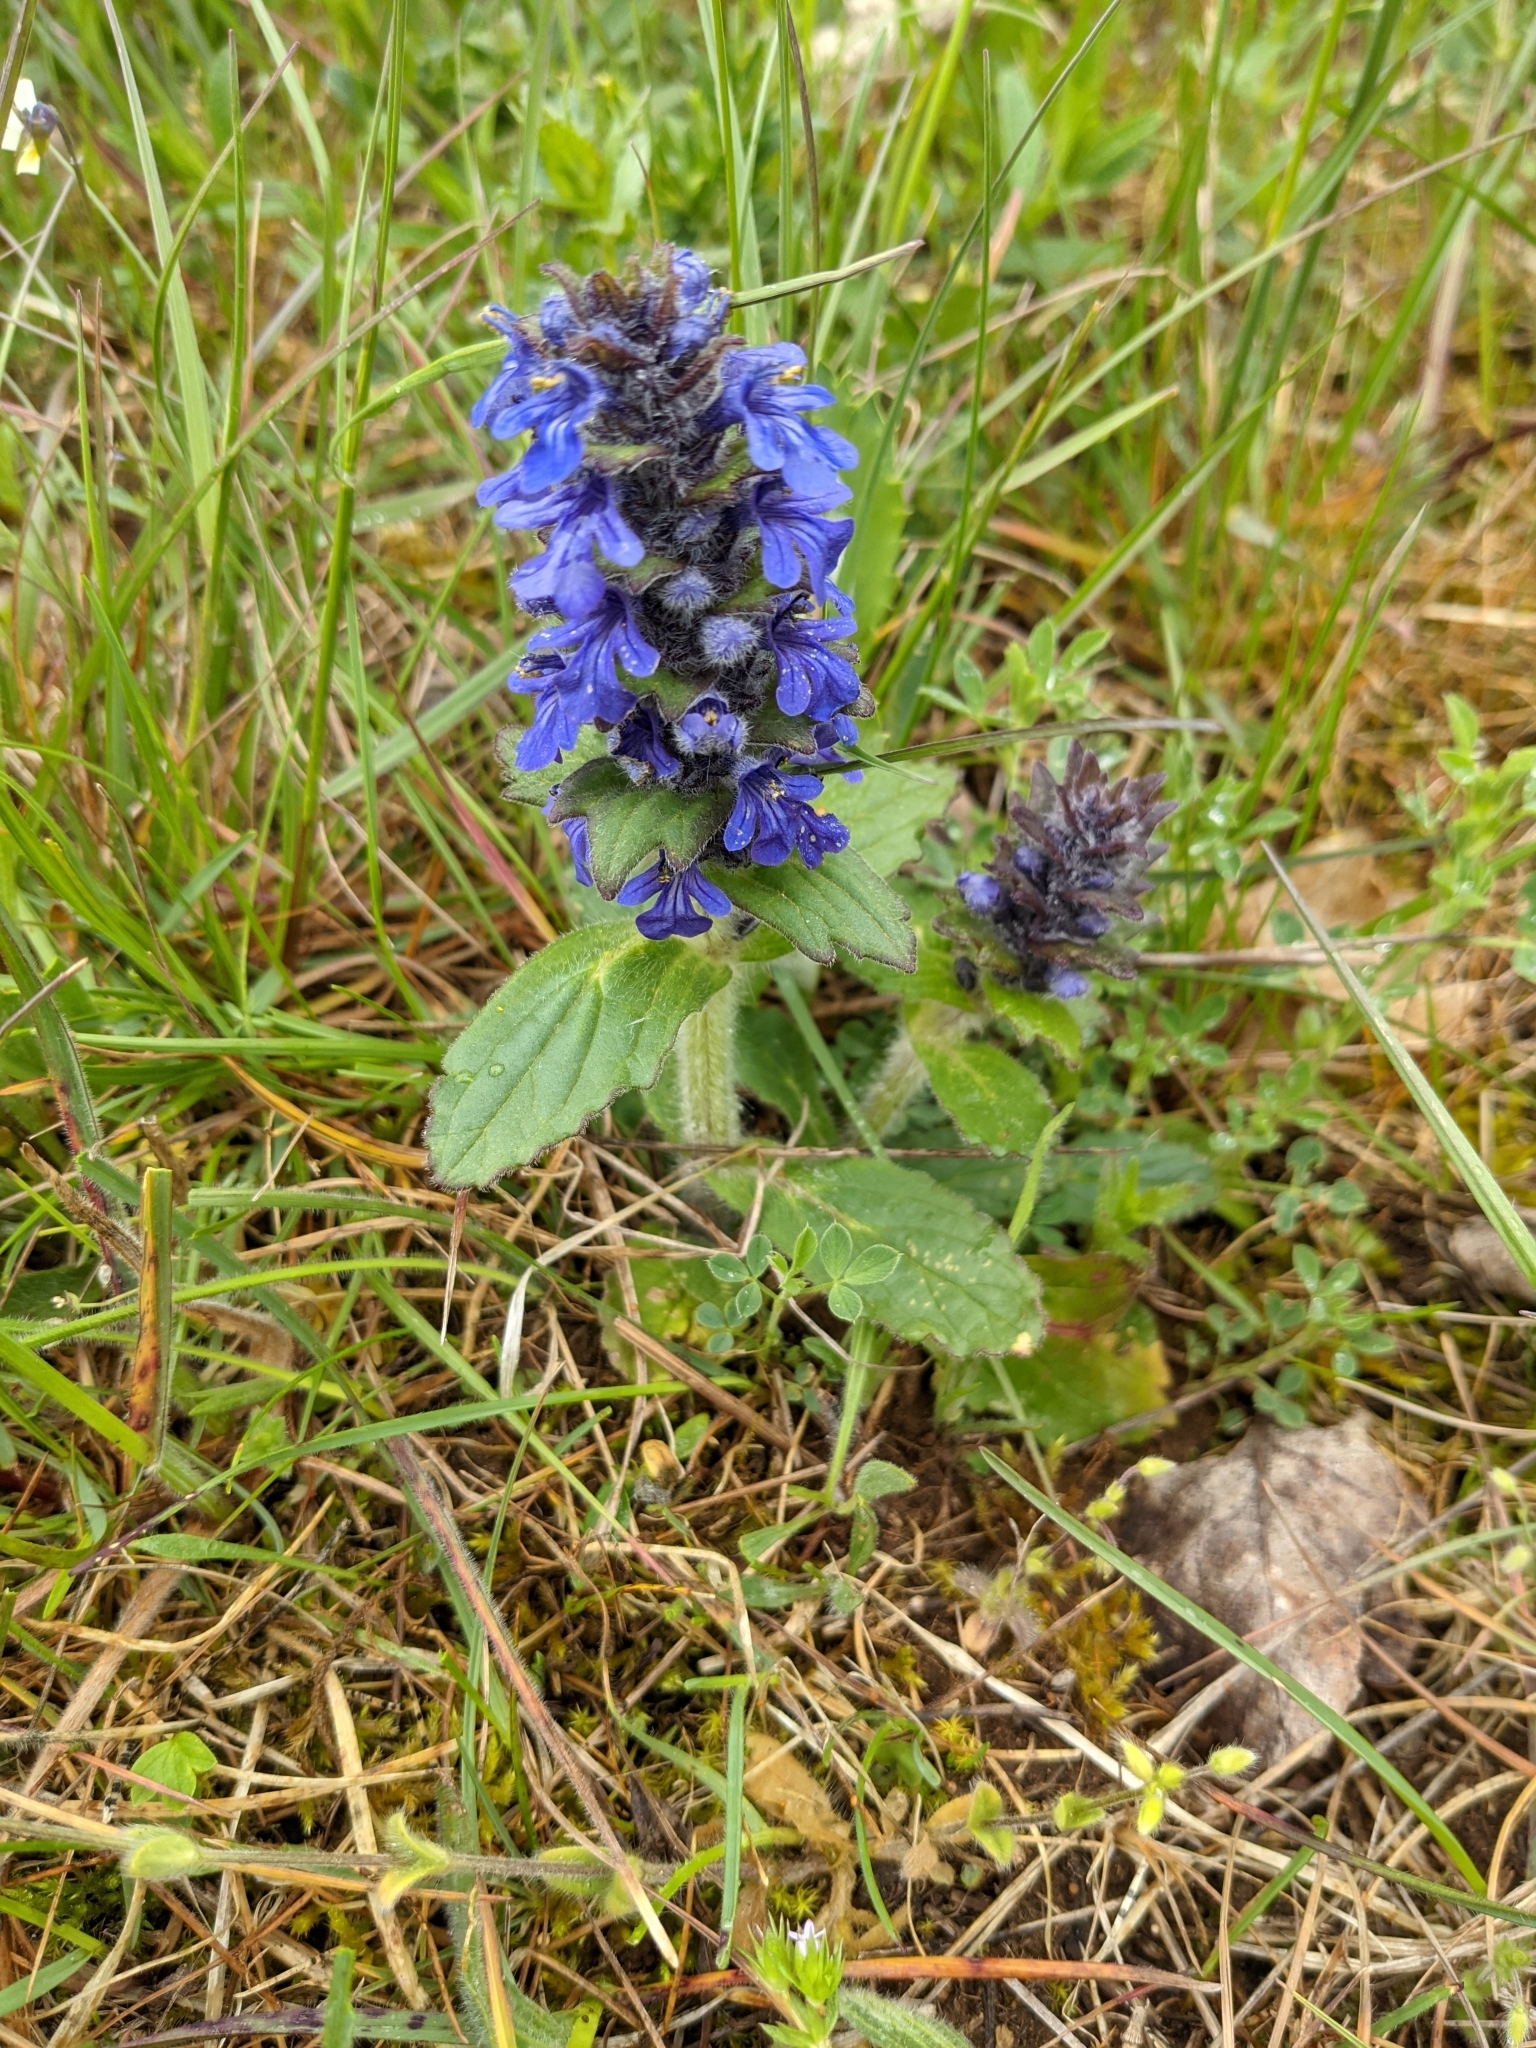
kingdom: Plantae
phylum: Tracheophyta
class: Magnoliopsida
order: Lamiales
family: Lamiaceae
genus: Ajuga
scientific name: Ajuga genevensis
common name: Blue bugle
